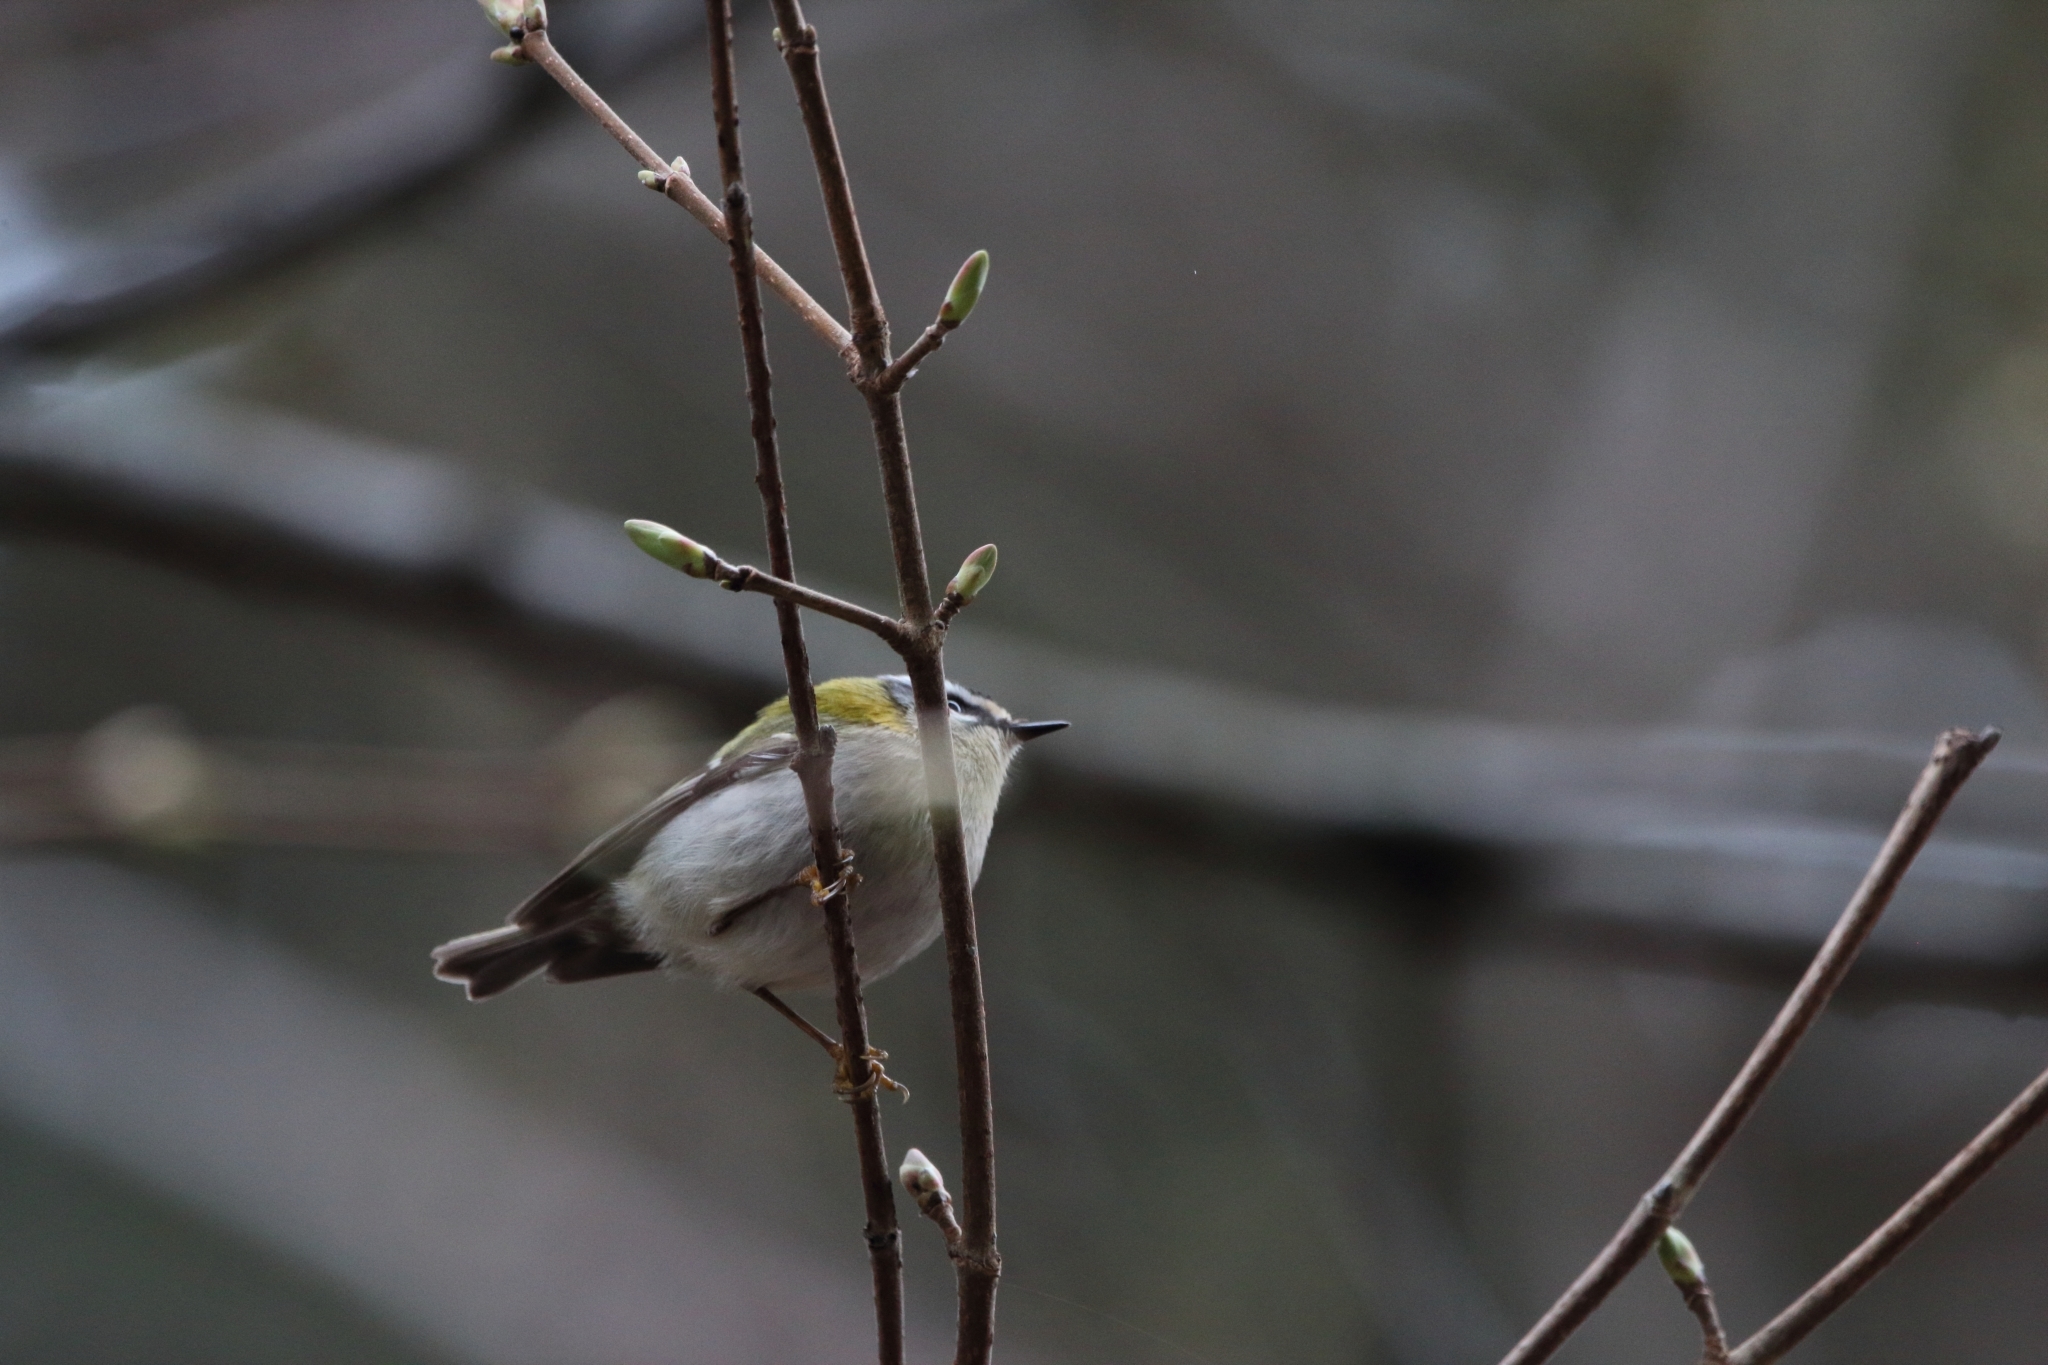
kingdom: Animalia
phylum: Chordata
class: Aves
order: Passeriformes
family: Regulidae
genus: Regulus
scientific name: Regulus ignicapilla
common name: Firecrest
